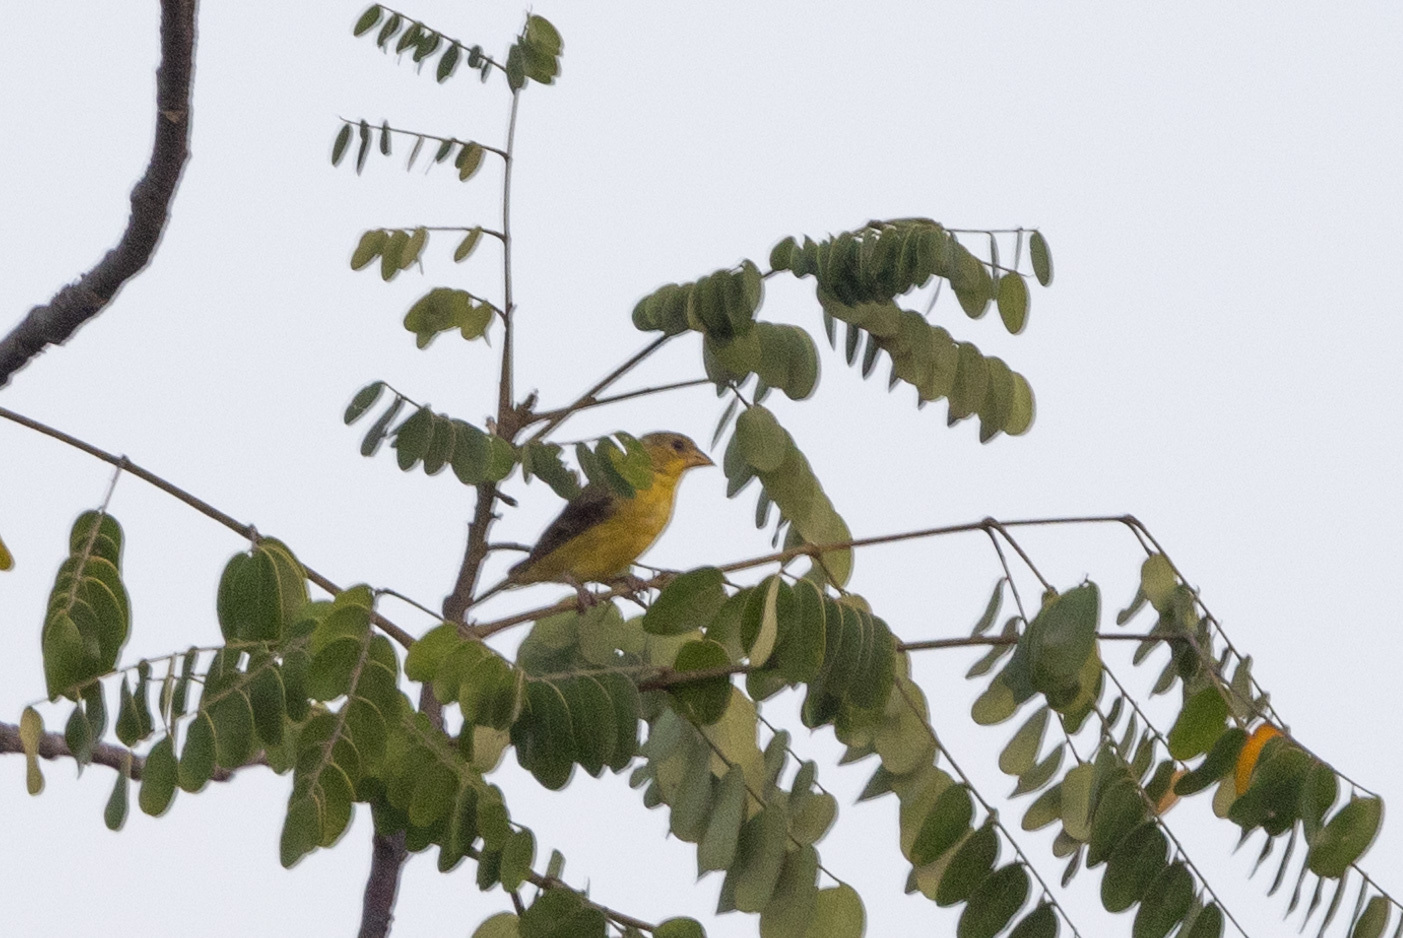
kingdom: Animalia
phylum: Chordata
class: Aves
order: Passeriformes
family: Fringillidae
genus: Spinus
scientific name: Spinus psaltria
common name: Lesser goldfinch
